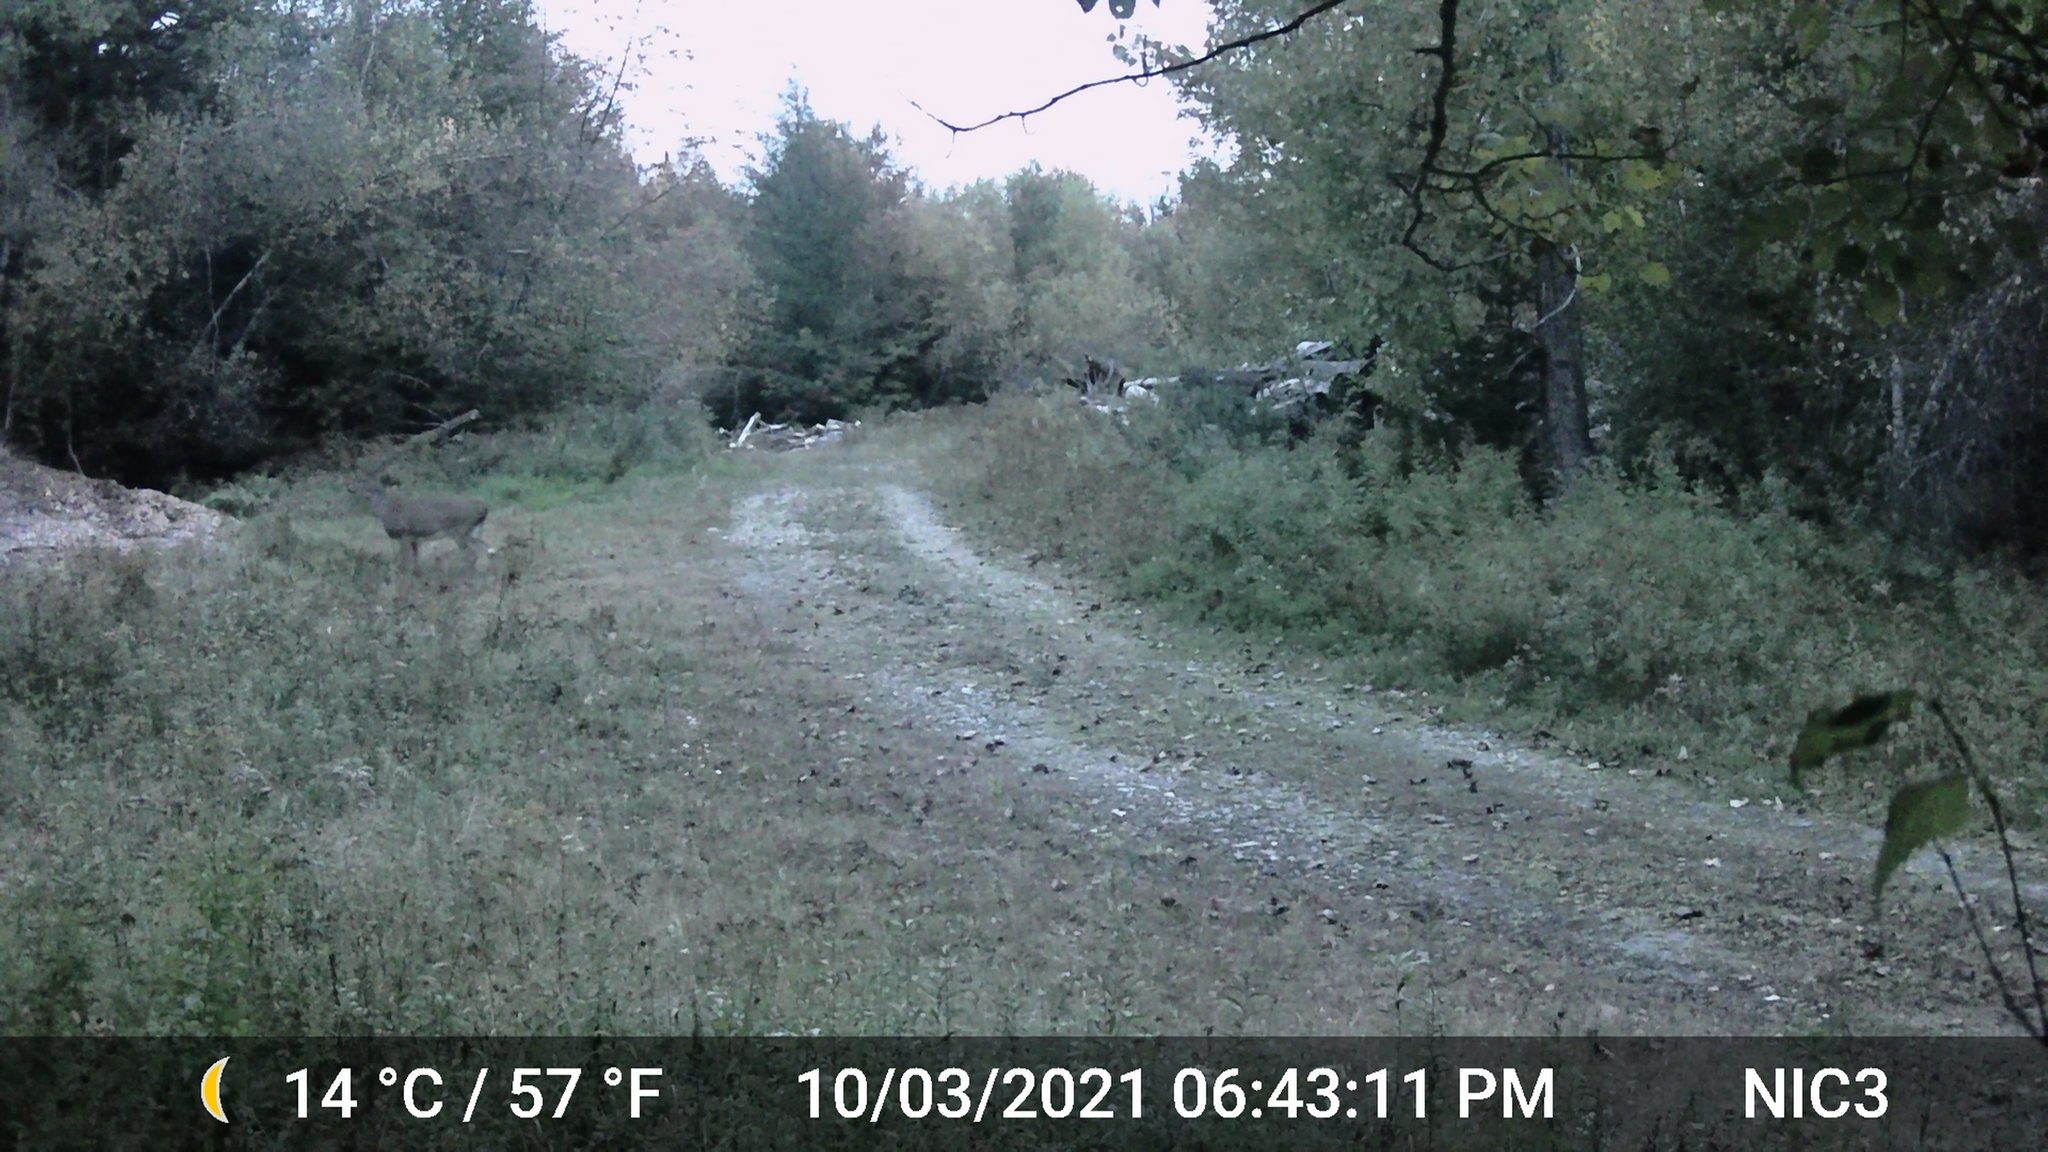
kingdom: Animalia
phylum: Chordata
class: Mammalia
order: Artiodactyla
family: Cervidae
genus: Odocoileus
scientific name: Odocoileus virginianus
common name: White-tailed deer
